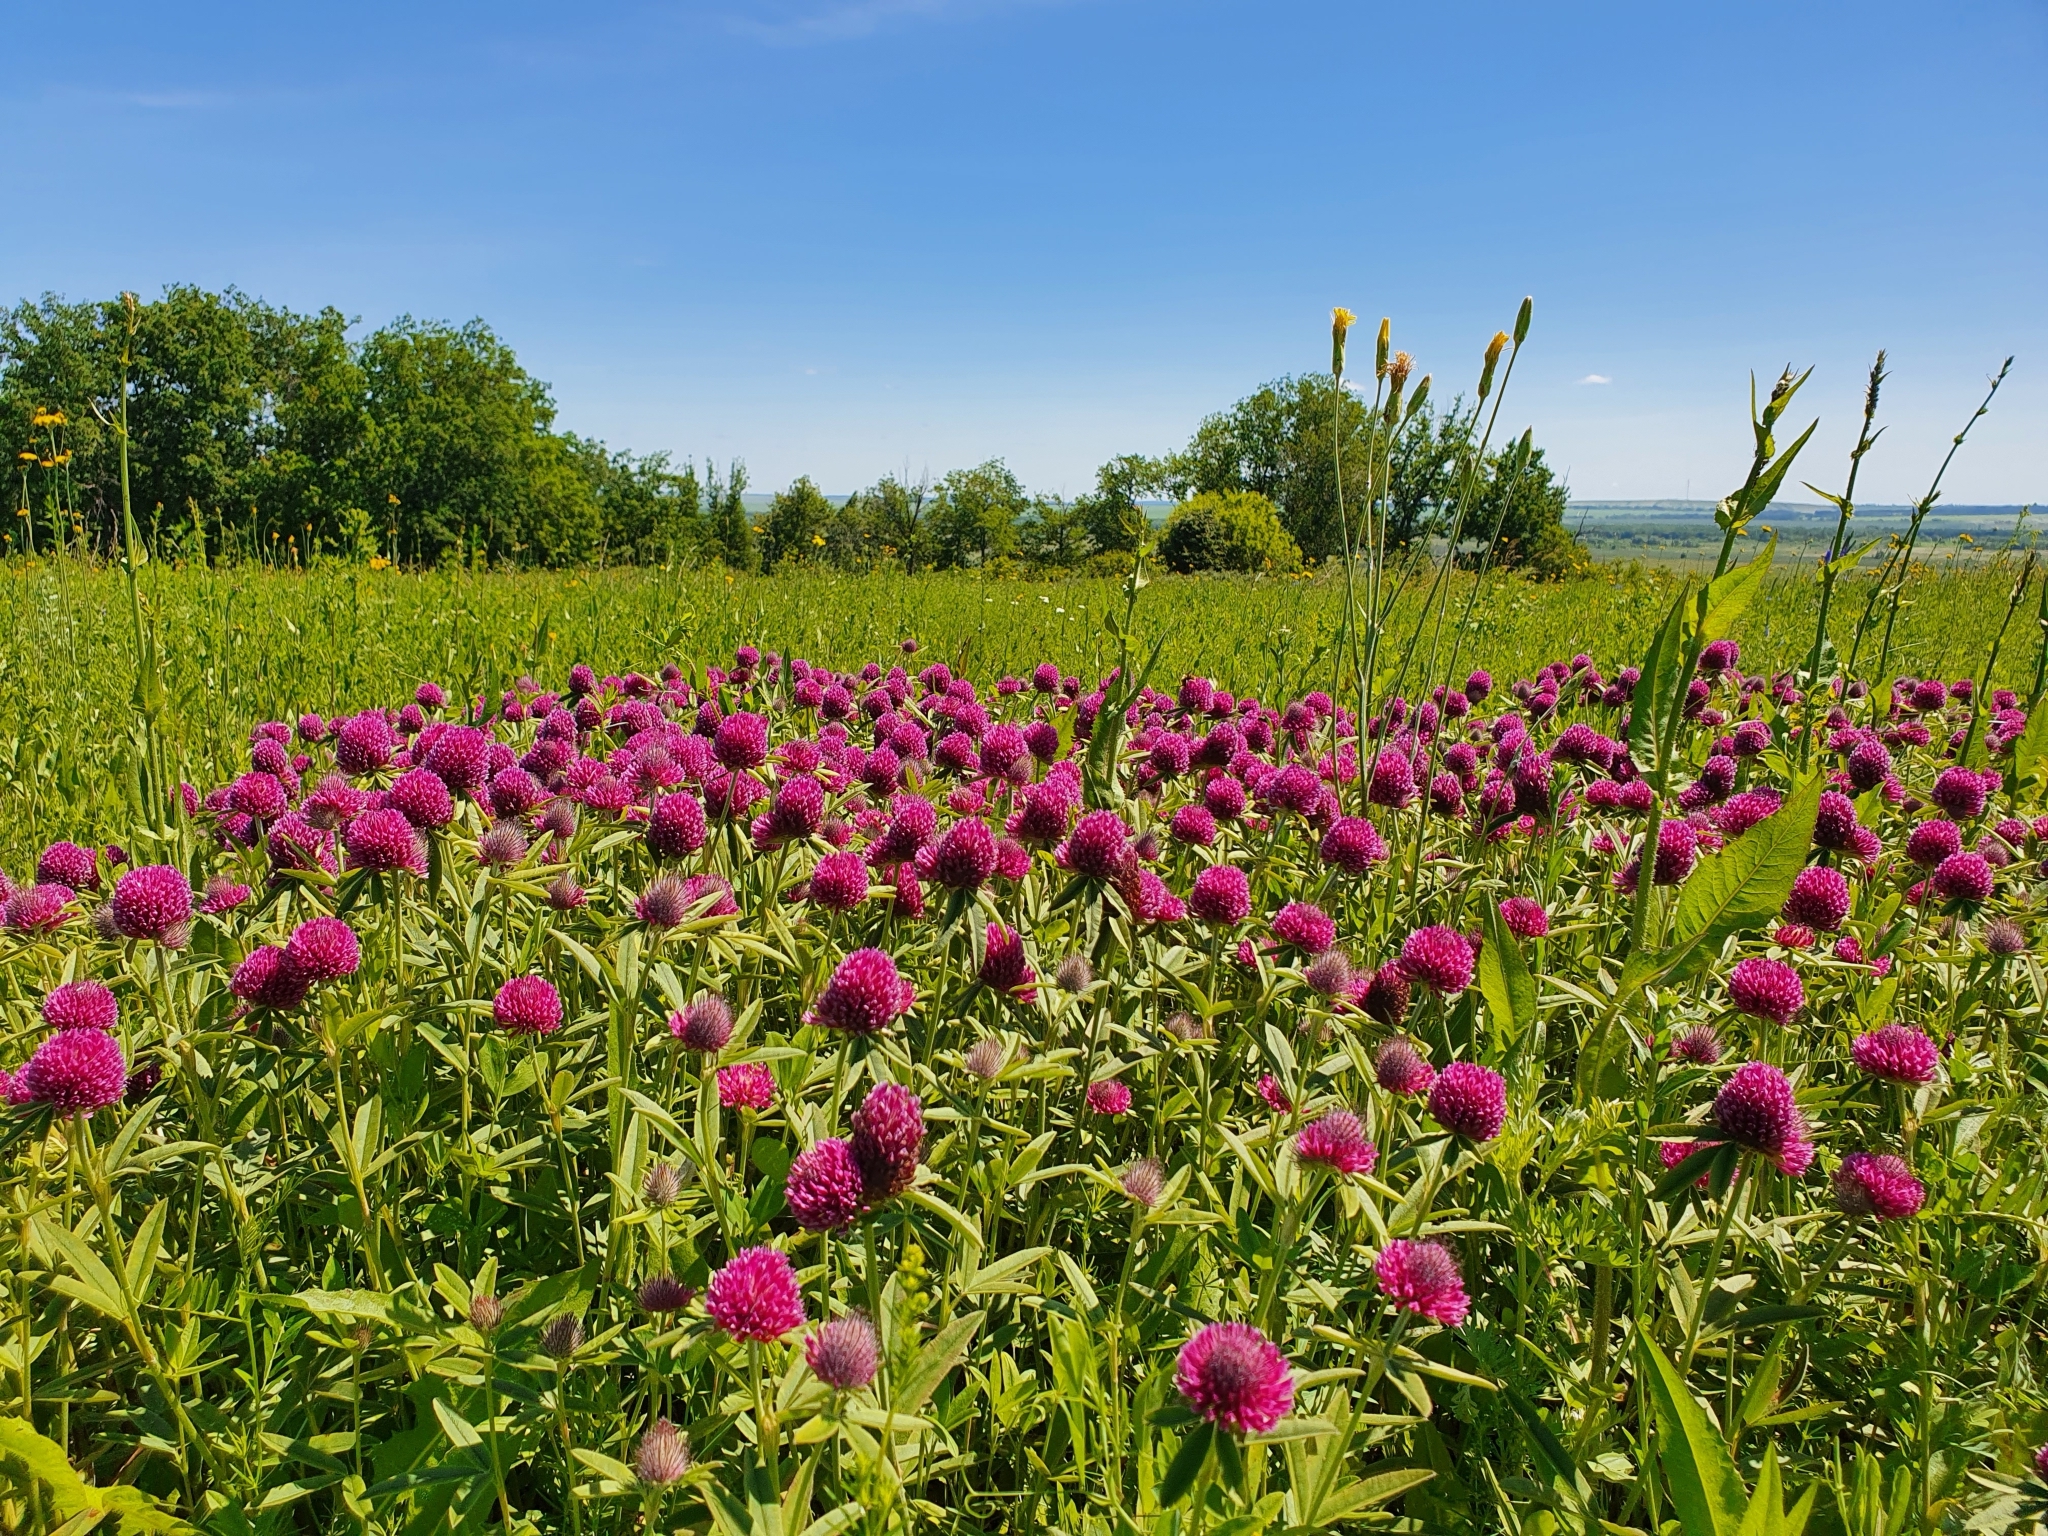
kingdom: Plantae
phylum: Tracheophyta
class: Magnoliopsida
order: Fabales
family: Fabaceae
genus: Trifolium
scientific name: Trifolium alpestre
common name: Owl-head clover
